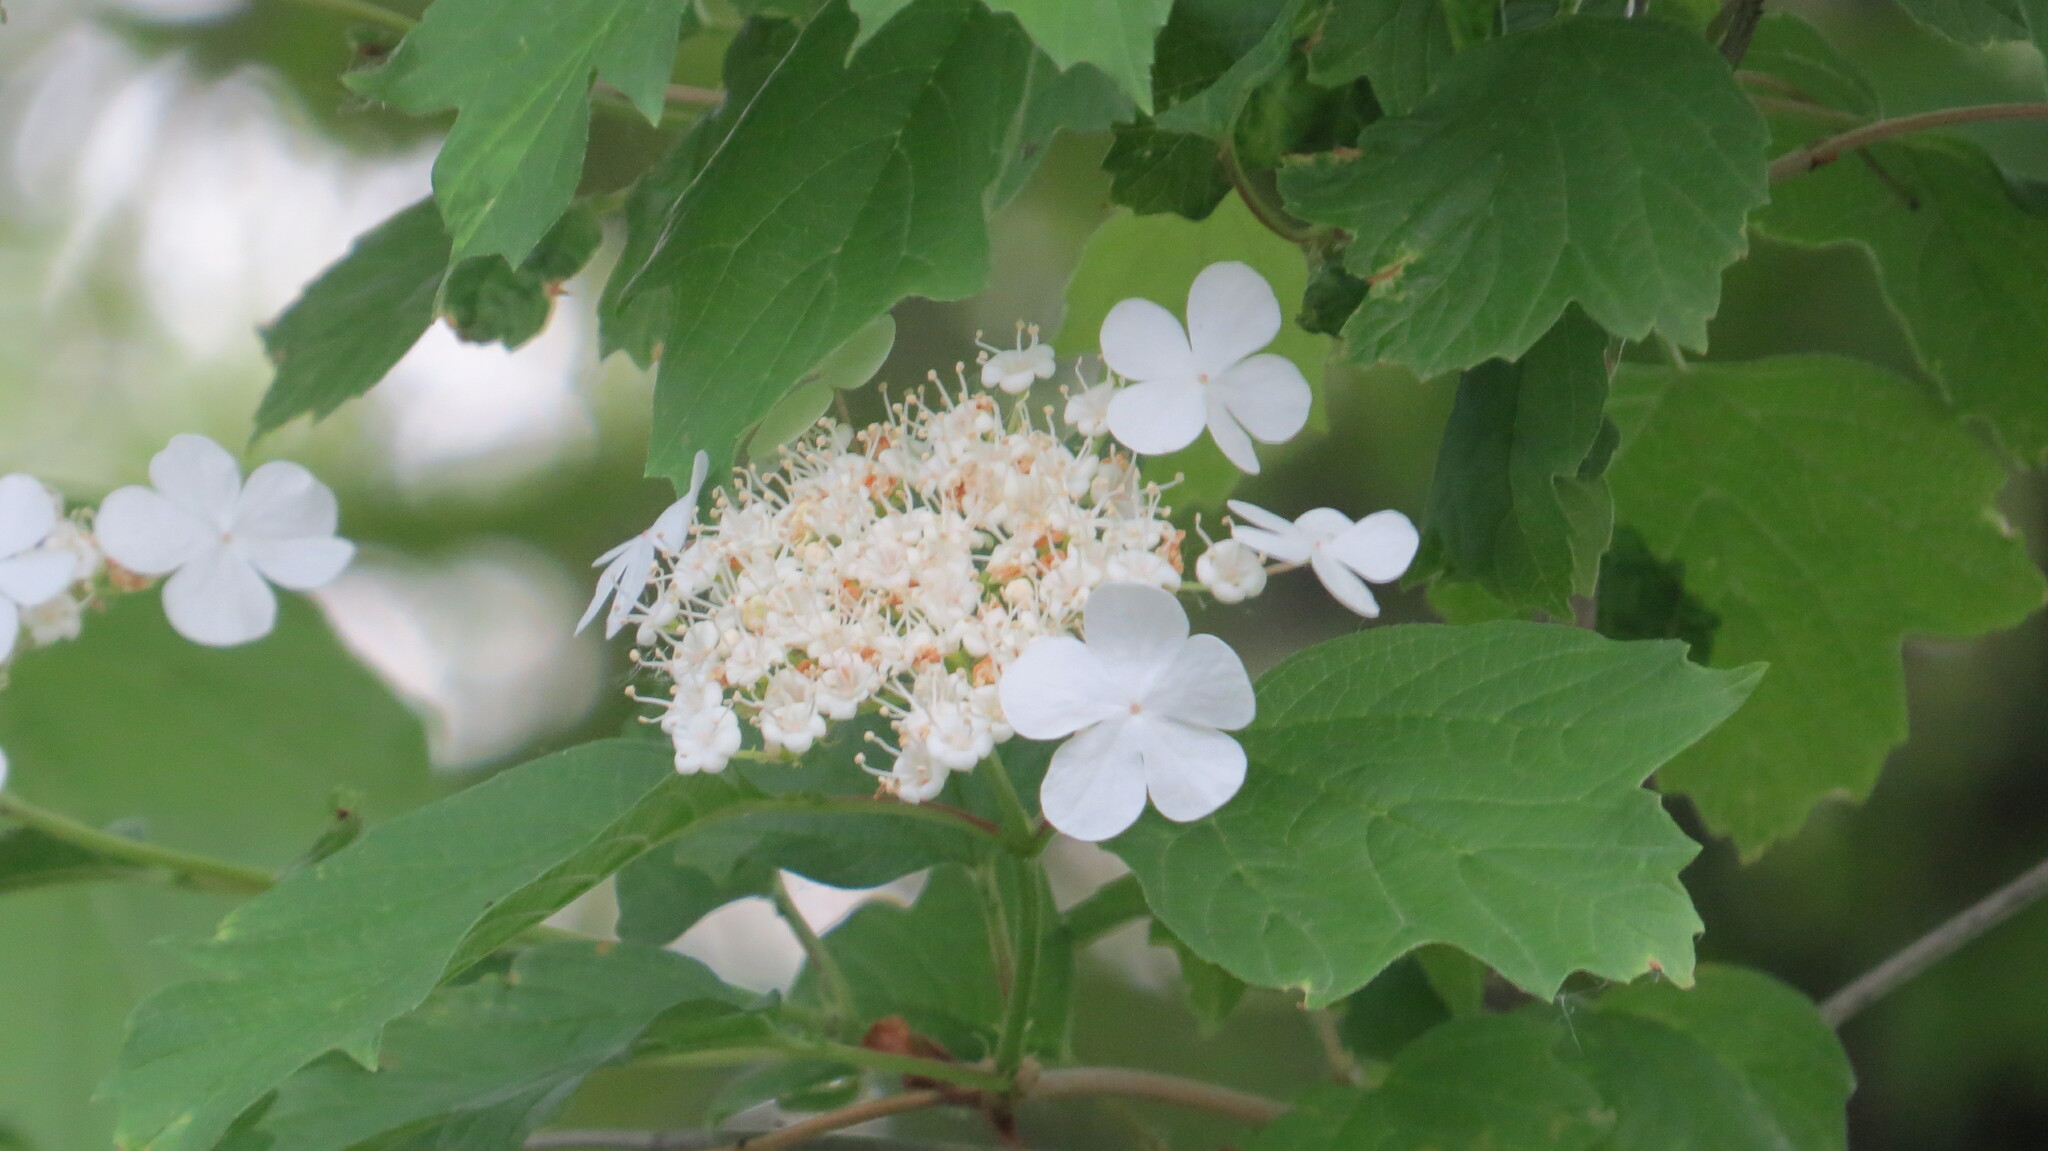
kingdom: Plantae
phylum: Tracheophyta
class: Magnoliopsida
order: Dipsacales
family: Viburnaceae
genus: Viburnum
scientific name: Viburnum opulus
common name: Guelder-rose
